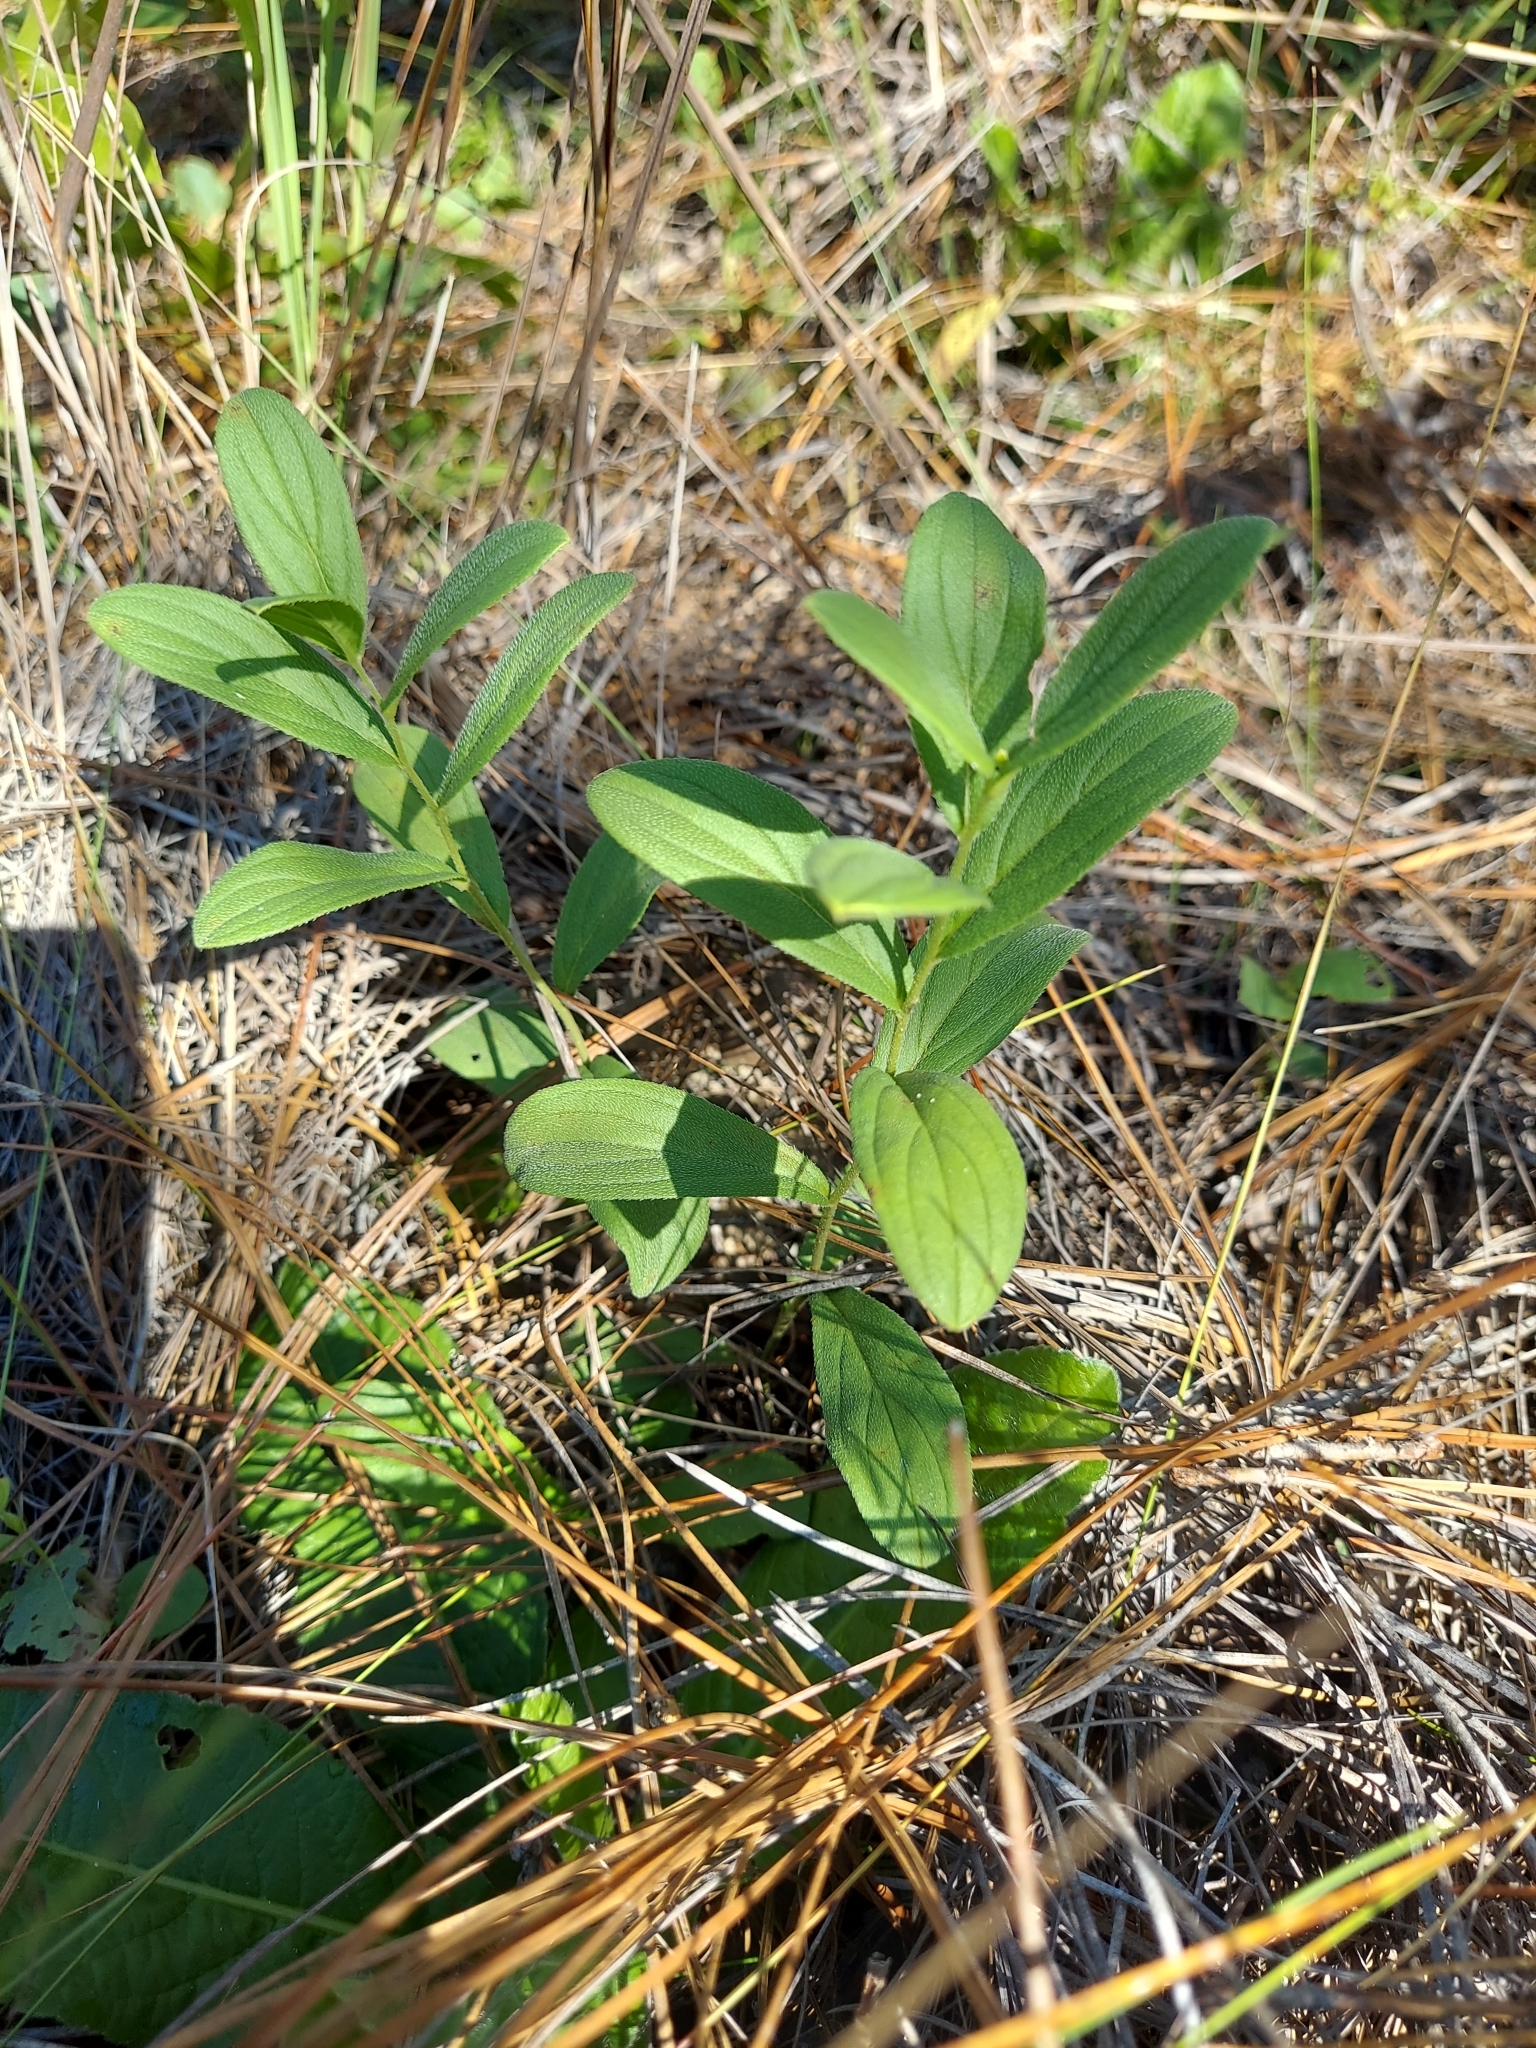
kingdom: Plantae
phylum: Tracheophyta
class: Magnoliopsida
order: Boraginales
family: Boraginaceae
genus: Lithospermum
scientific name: Lithospermum virginianum
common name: Eastern false gromwell
